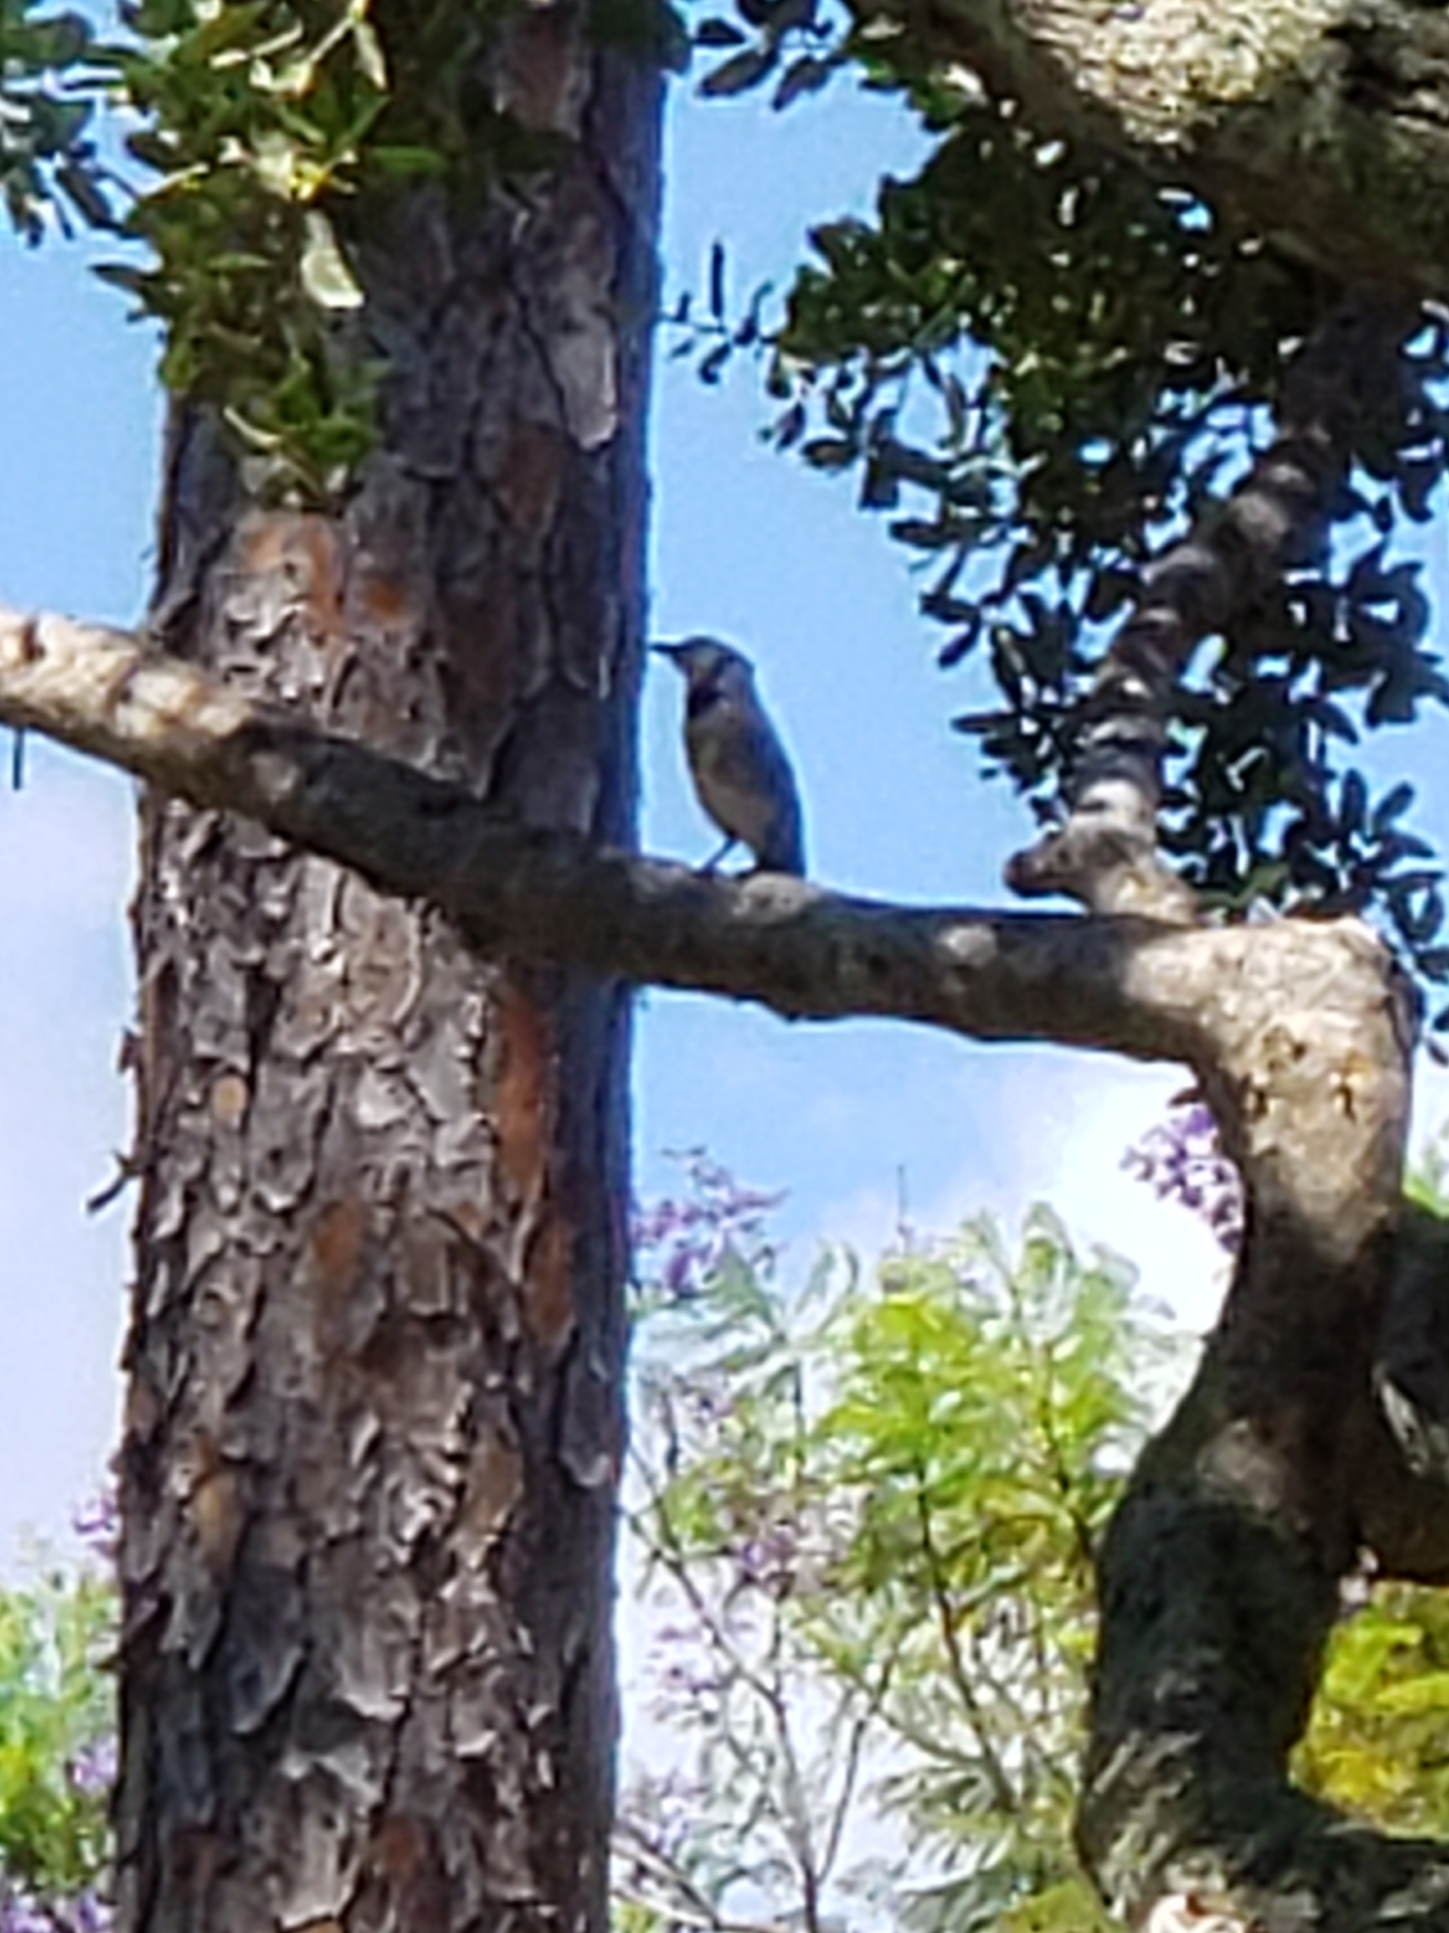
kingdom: Animalia
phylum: Chordata
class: Aves
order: Passeriformes
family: Corvidae
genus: Cyanocitta
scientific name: Cyanocitta cristata
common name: Blue jay
